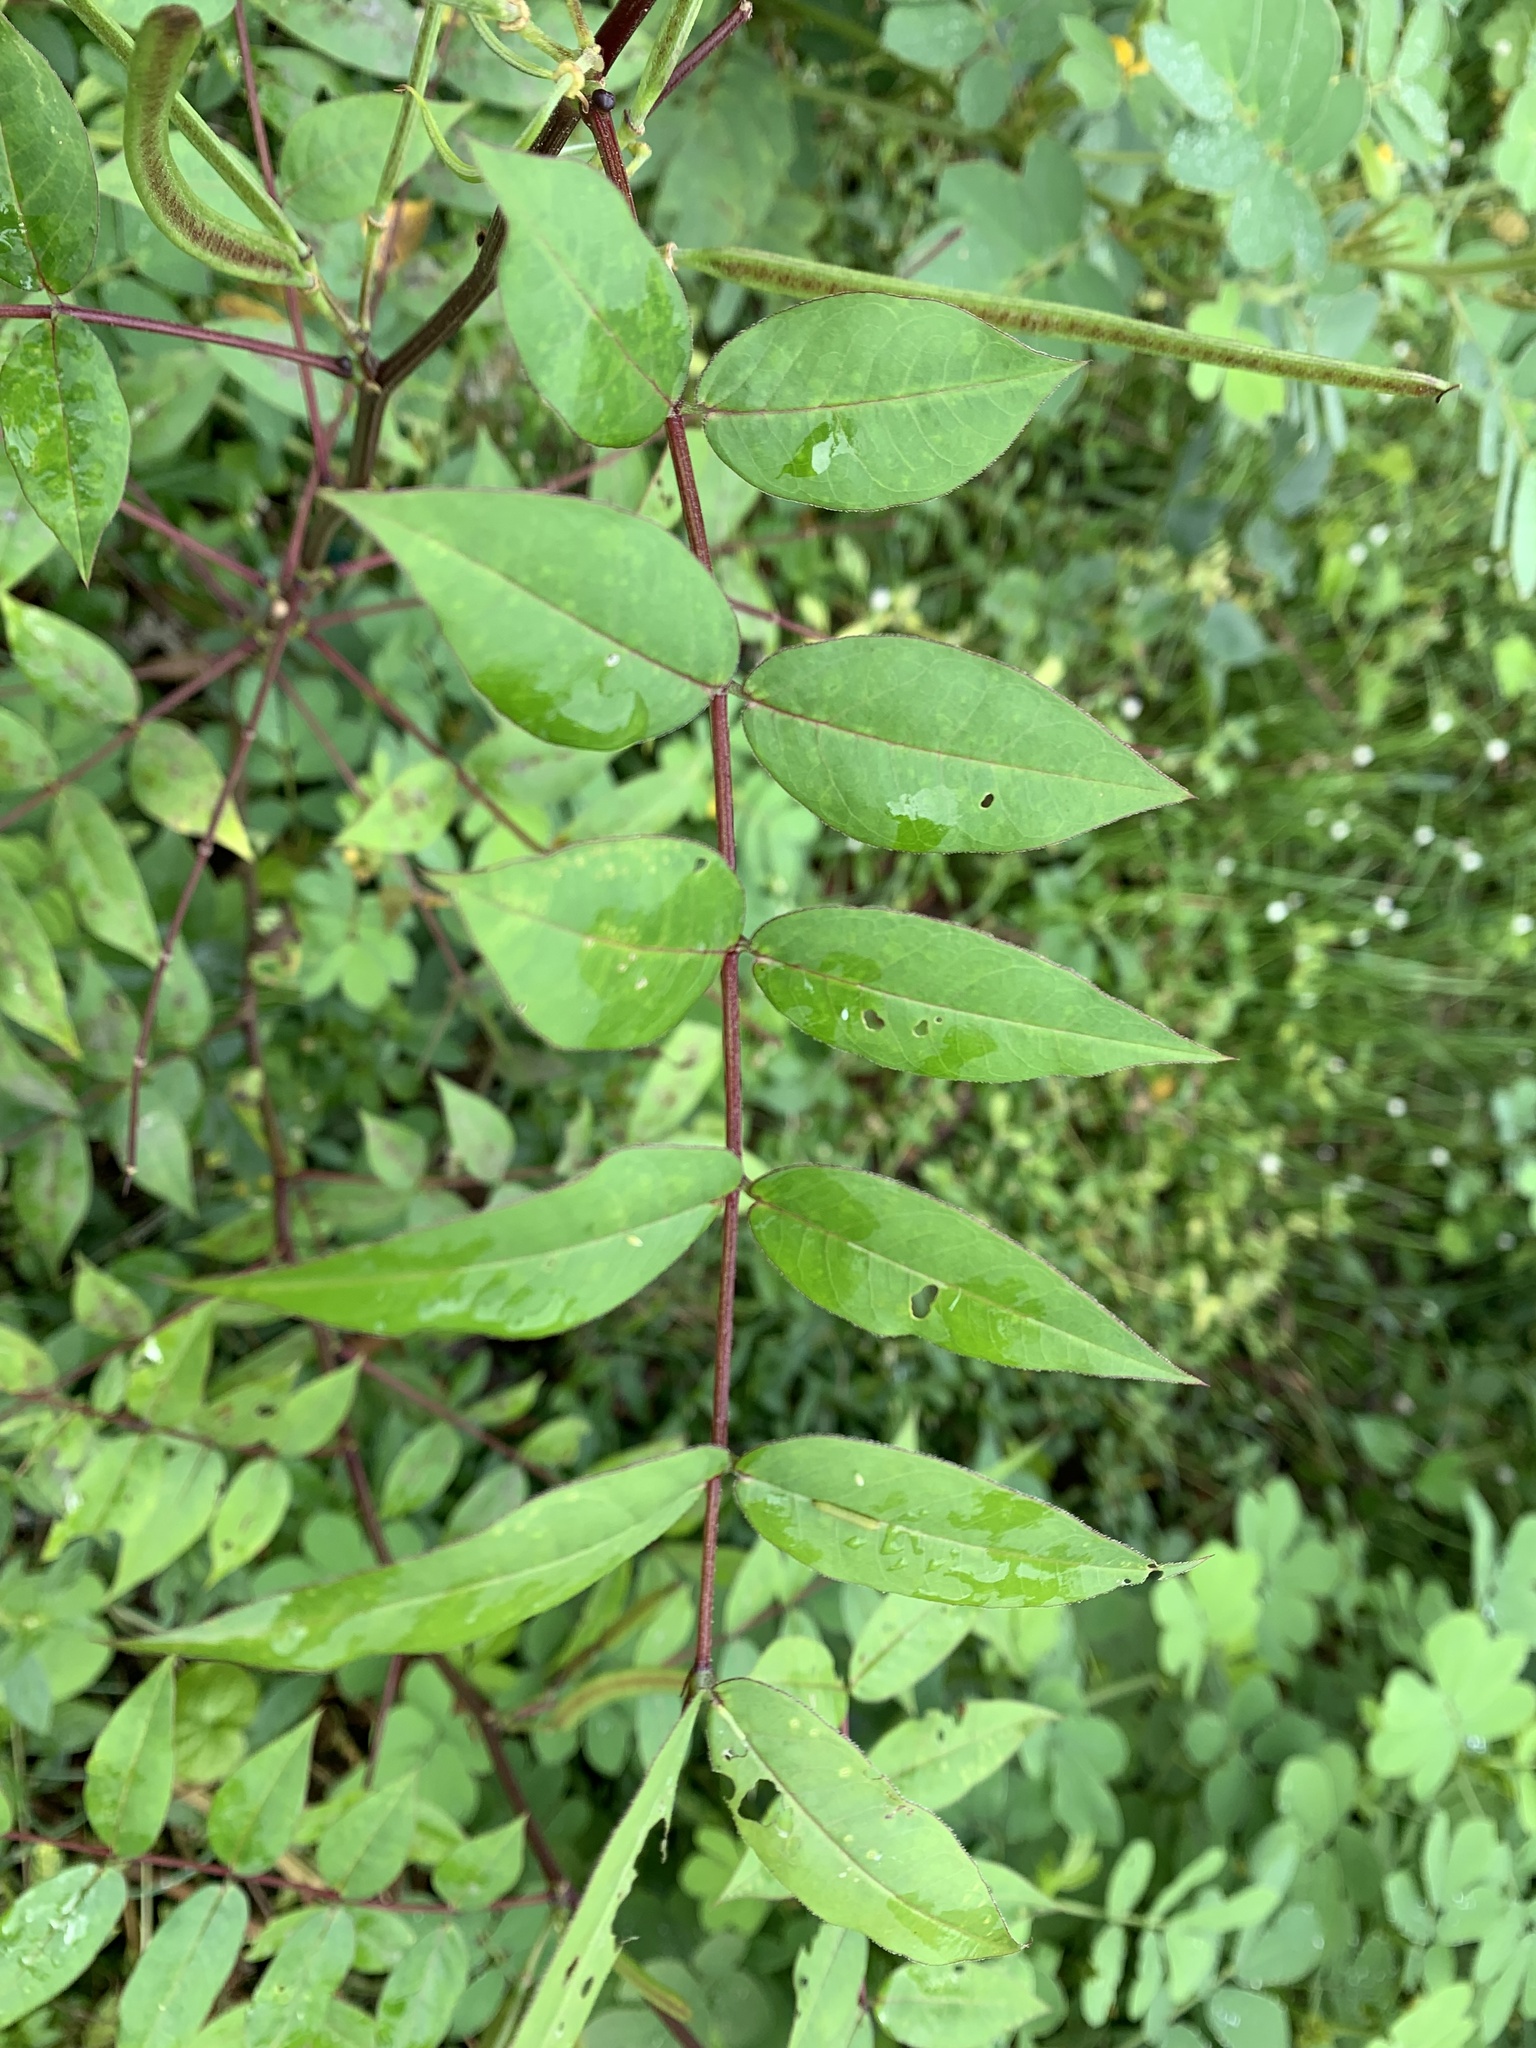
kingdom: Plantae
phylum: Tracheophyta
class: Magnoliopsida
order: Fabales
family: Fabaceae
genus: Senna
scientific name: Senna occidentalis
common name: Septicweed
